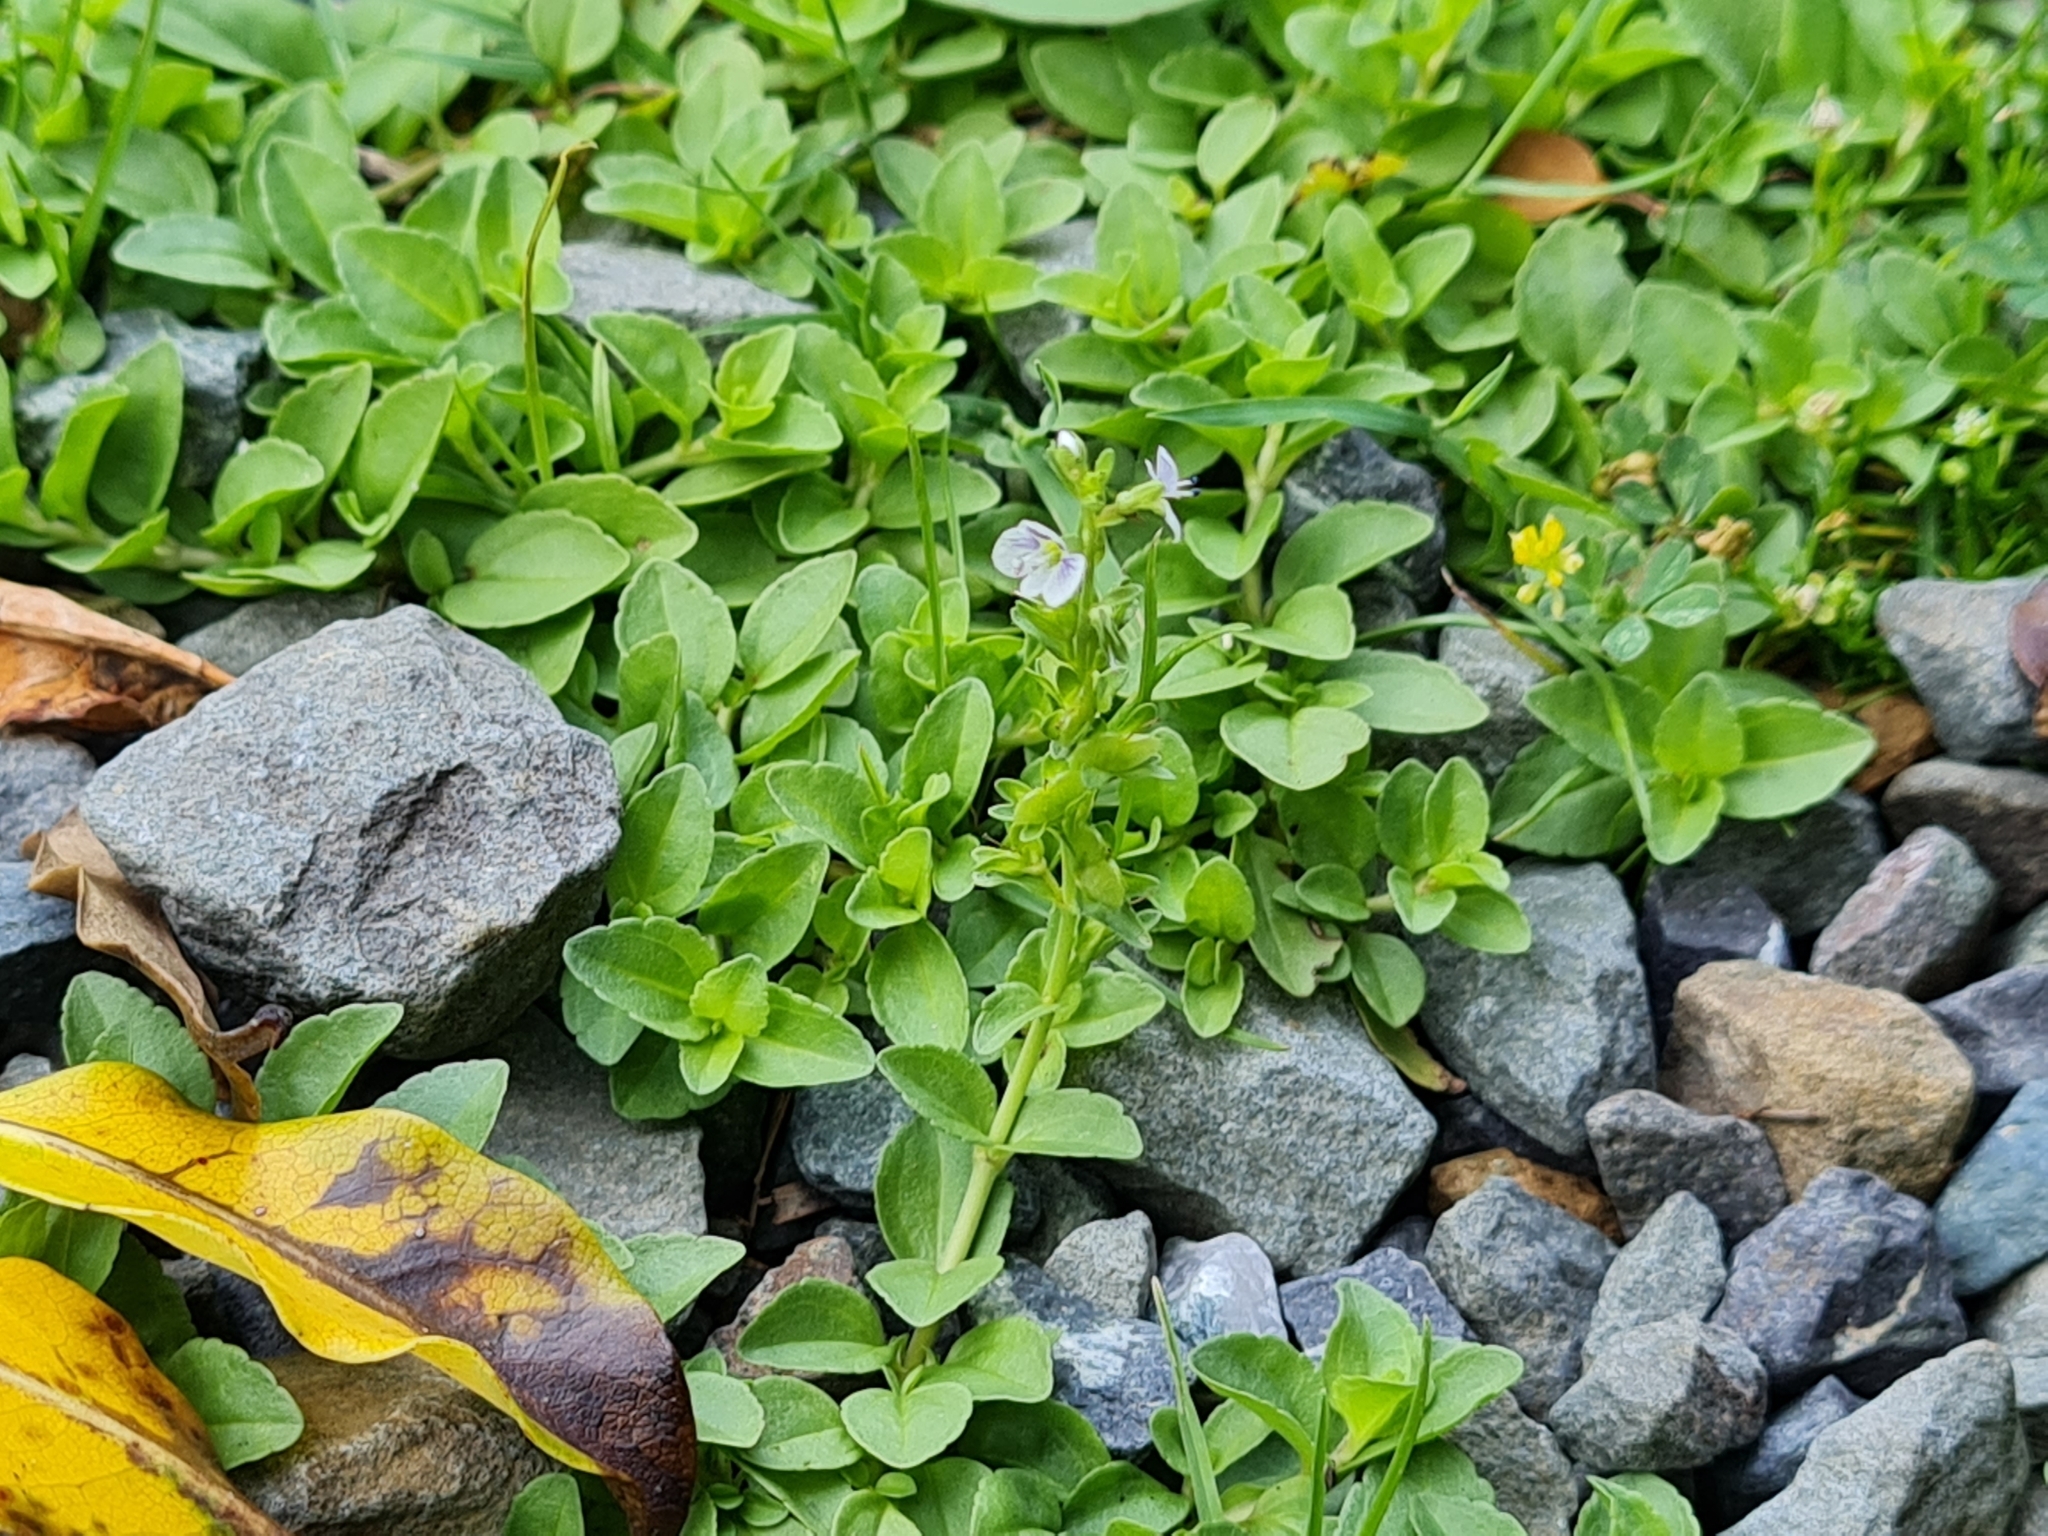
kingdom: Plantae
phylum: Tracheophyta
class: Magnoliopsida
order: Lamiales
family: Plantaginaceae
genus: Veronica
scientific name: Veronica serpyllifolia
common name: Thyme-leaved speedwell
